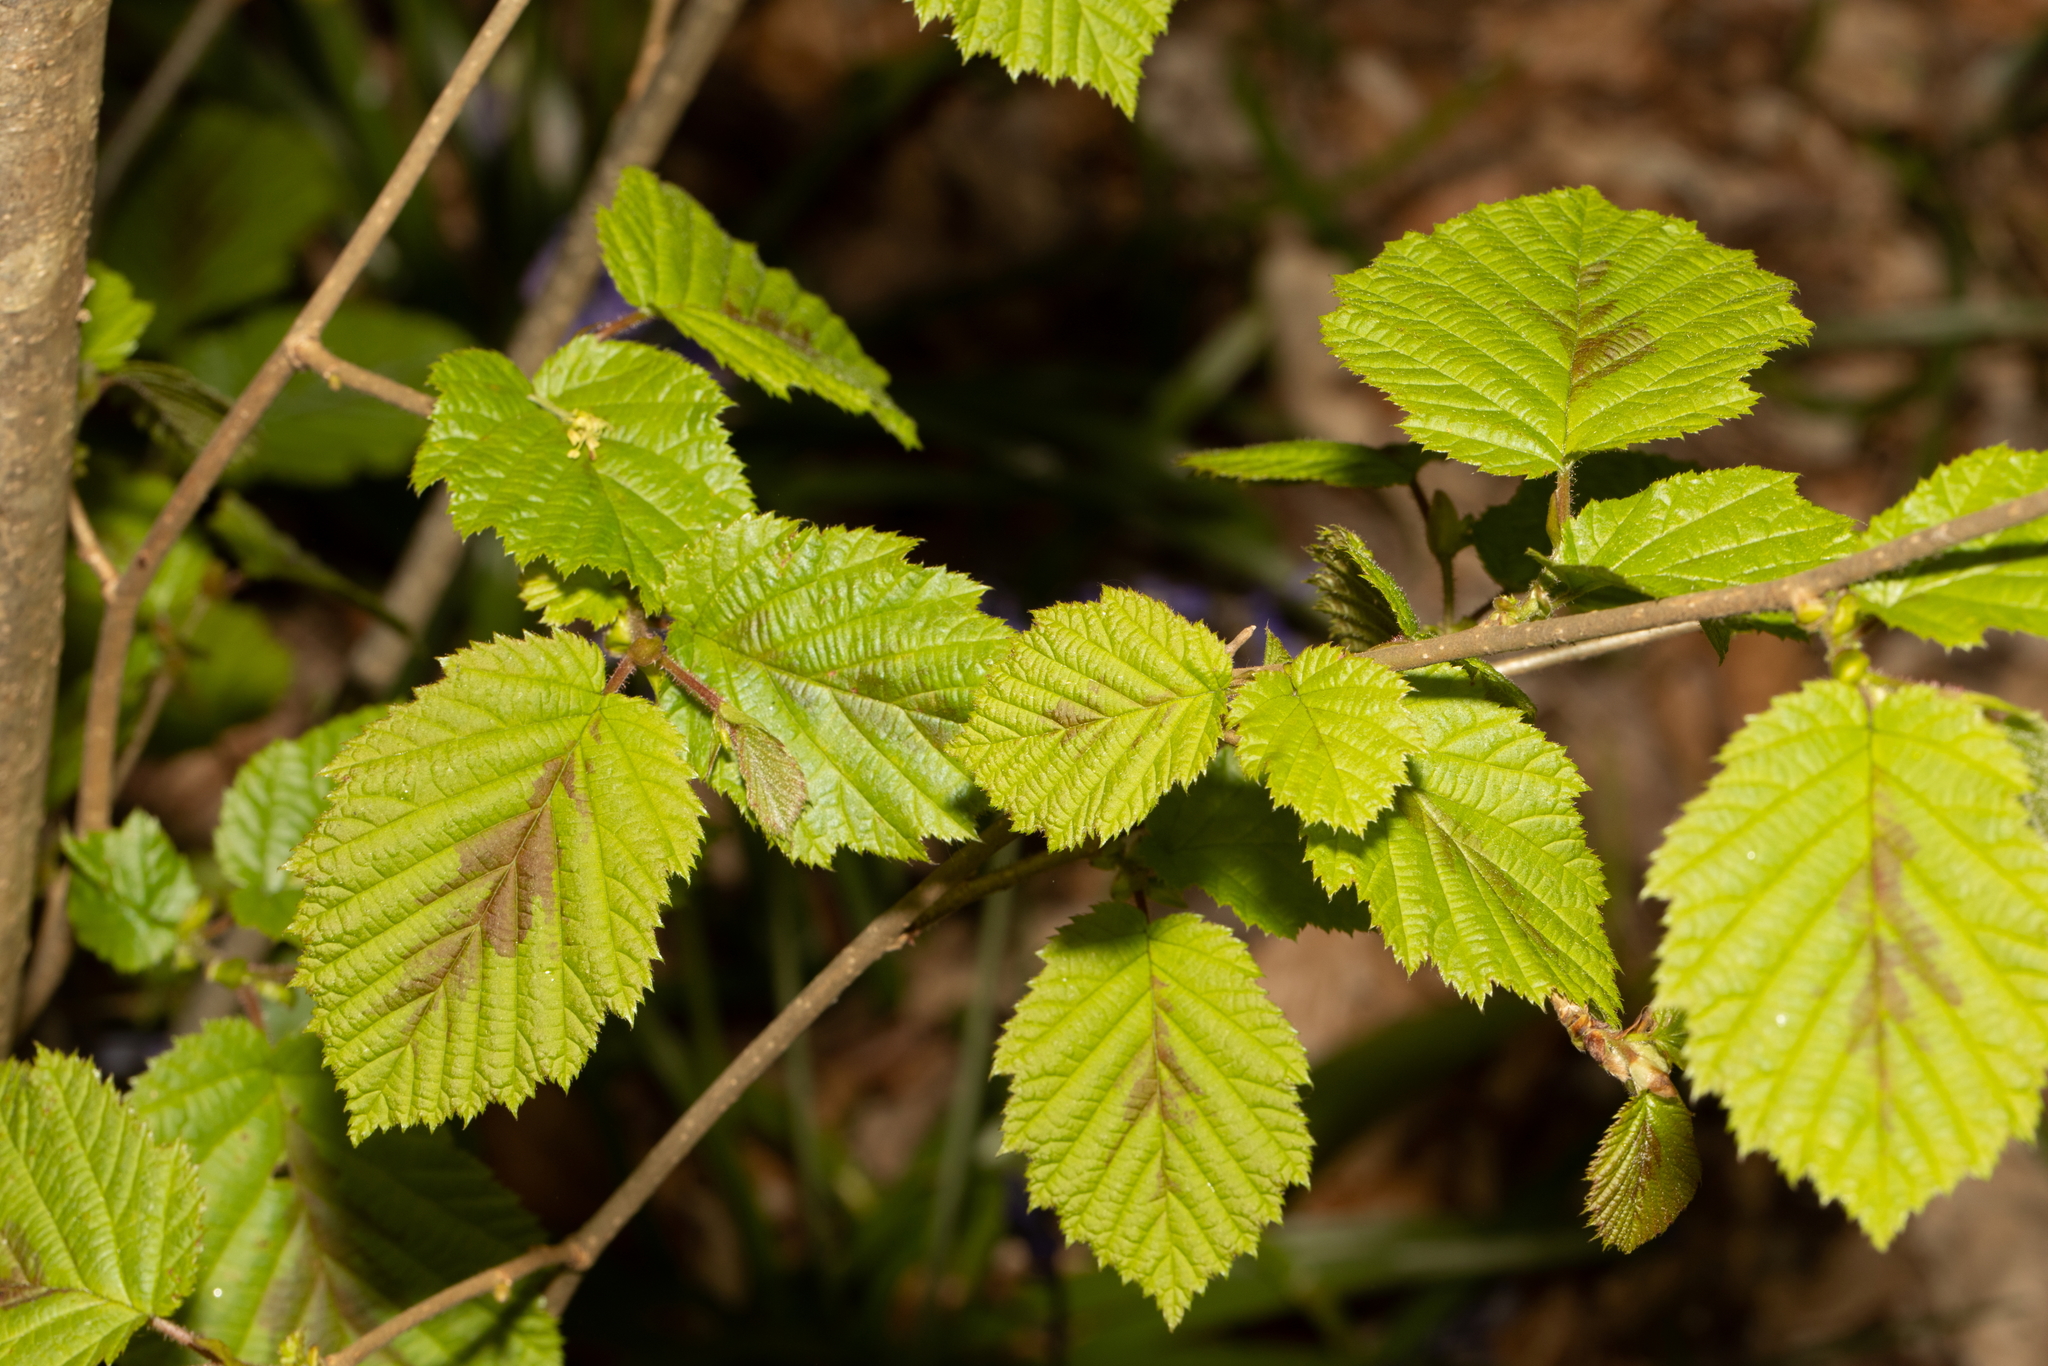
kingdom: Plantae
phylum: Tracheophyta
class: Magnoliopsida
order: Fagales
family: Betulaceae
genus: Corylus
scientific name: Corylus avellana
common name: European hazel
